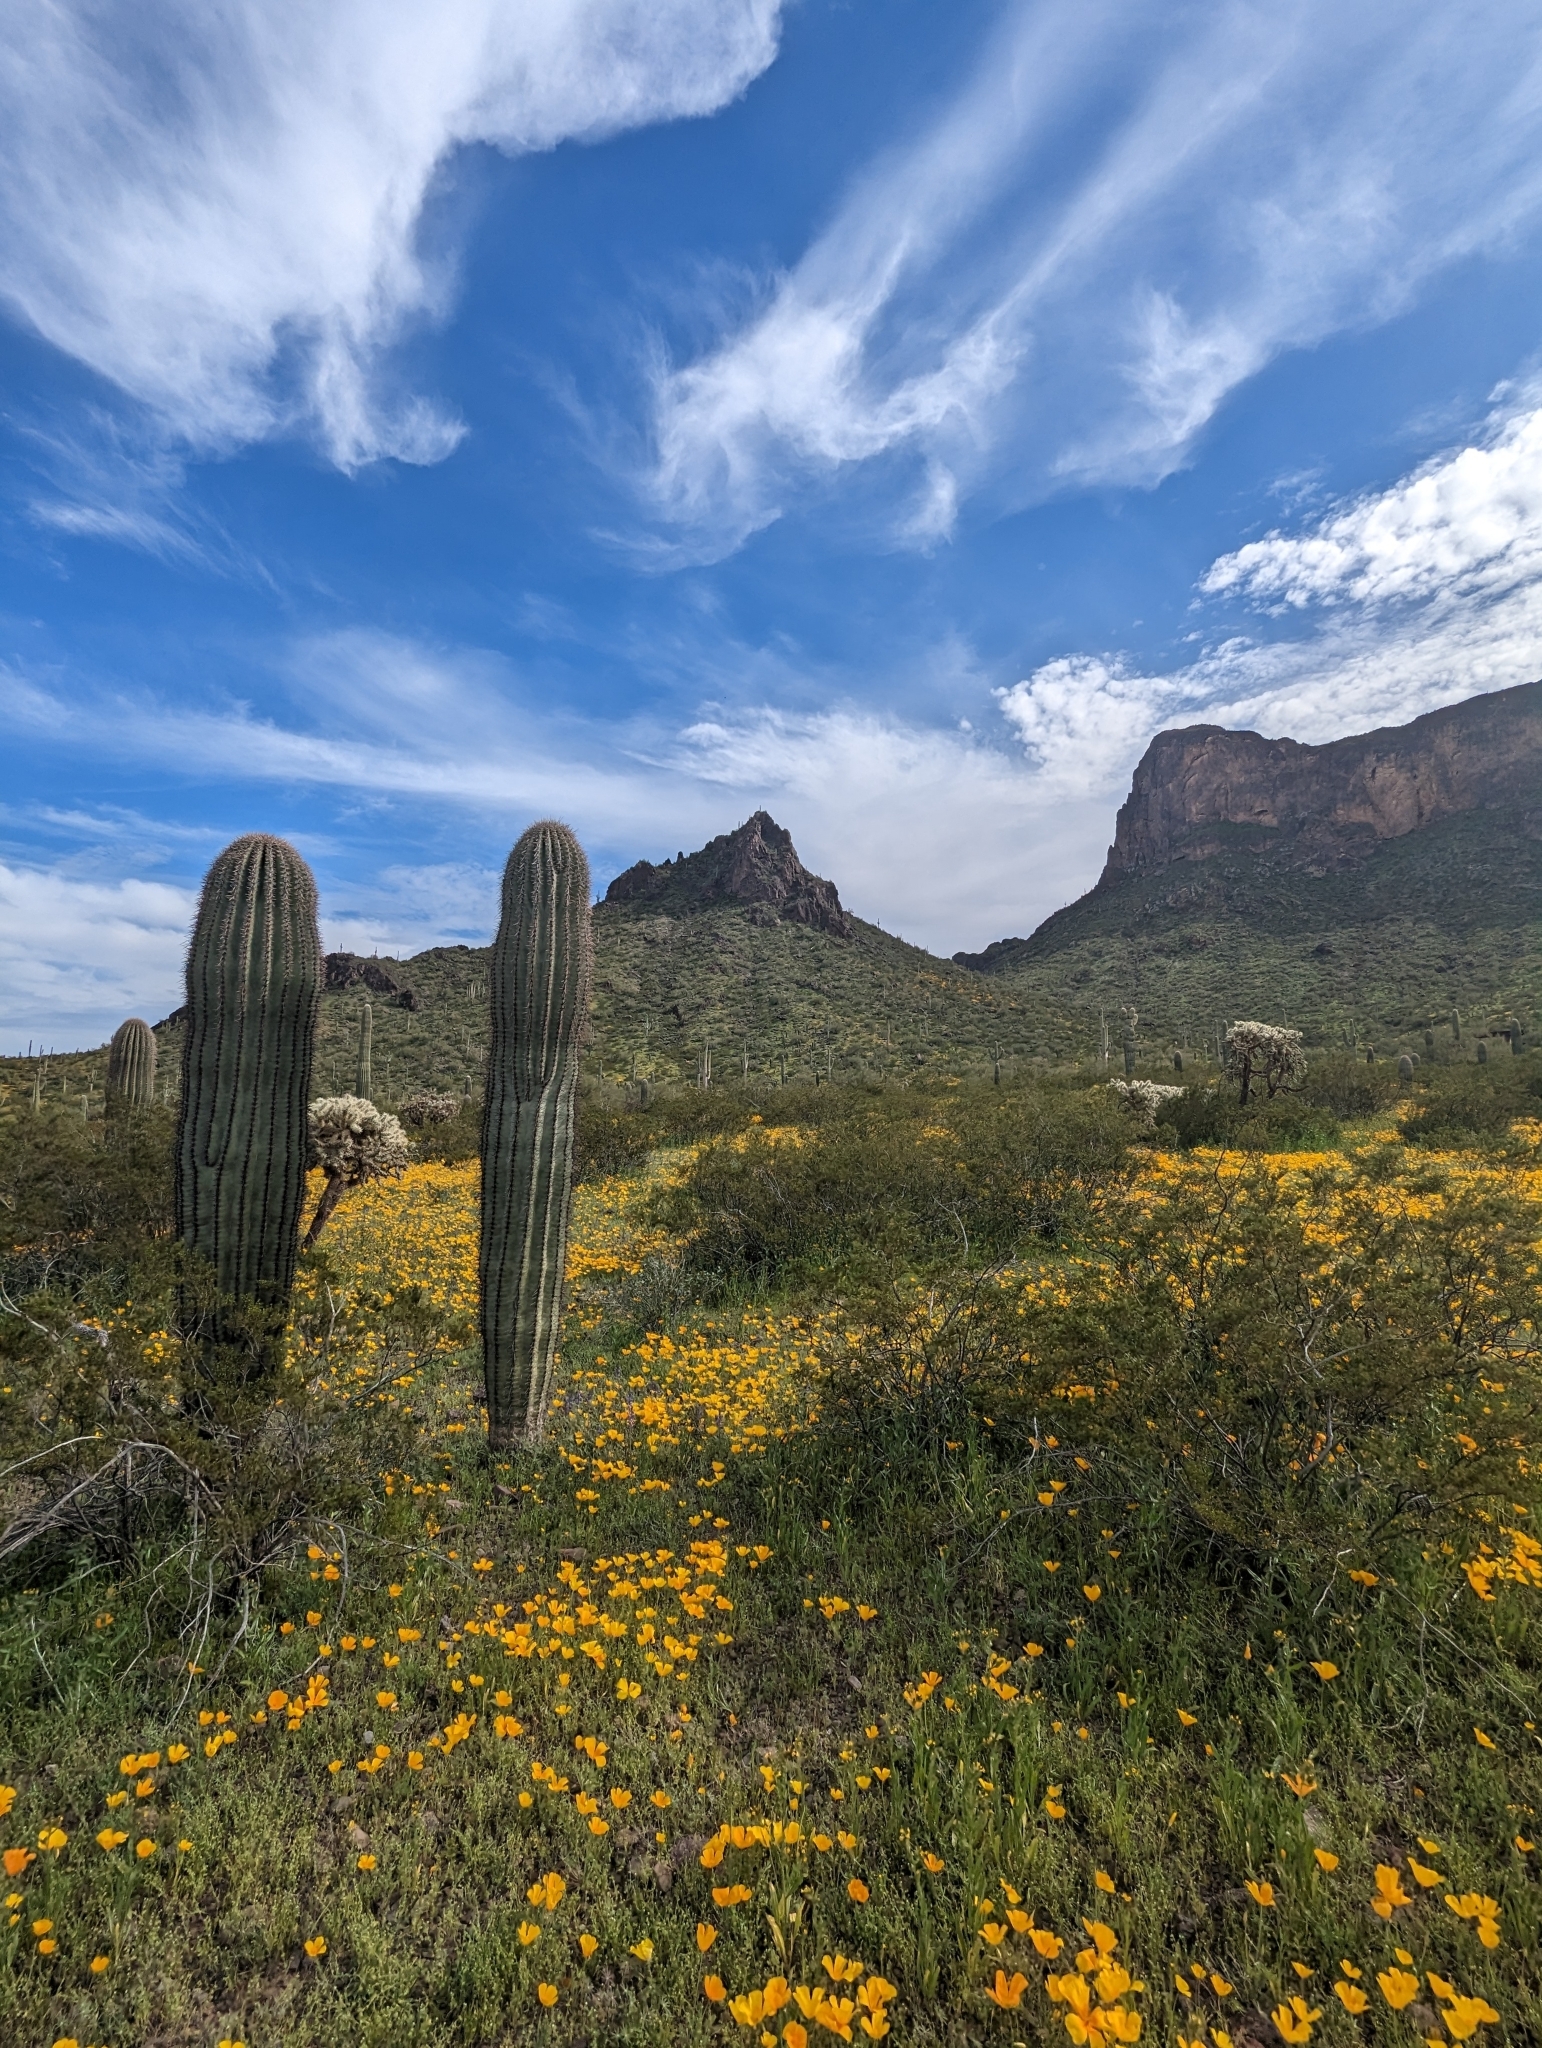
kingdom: Plantae
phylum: Tracheophyta
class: Magnoliopsida
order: Caryophyllales
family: Cactaceae
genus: Carnegiea
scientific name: Carnegiea gigantea
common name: Saguaro
